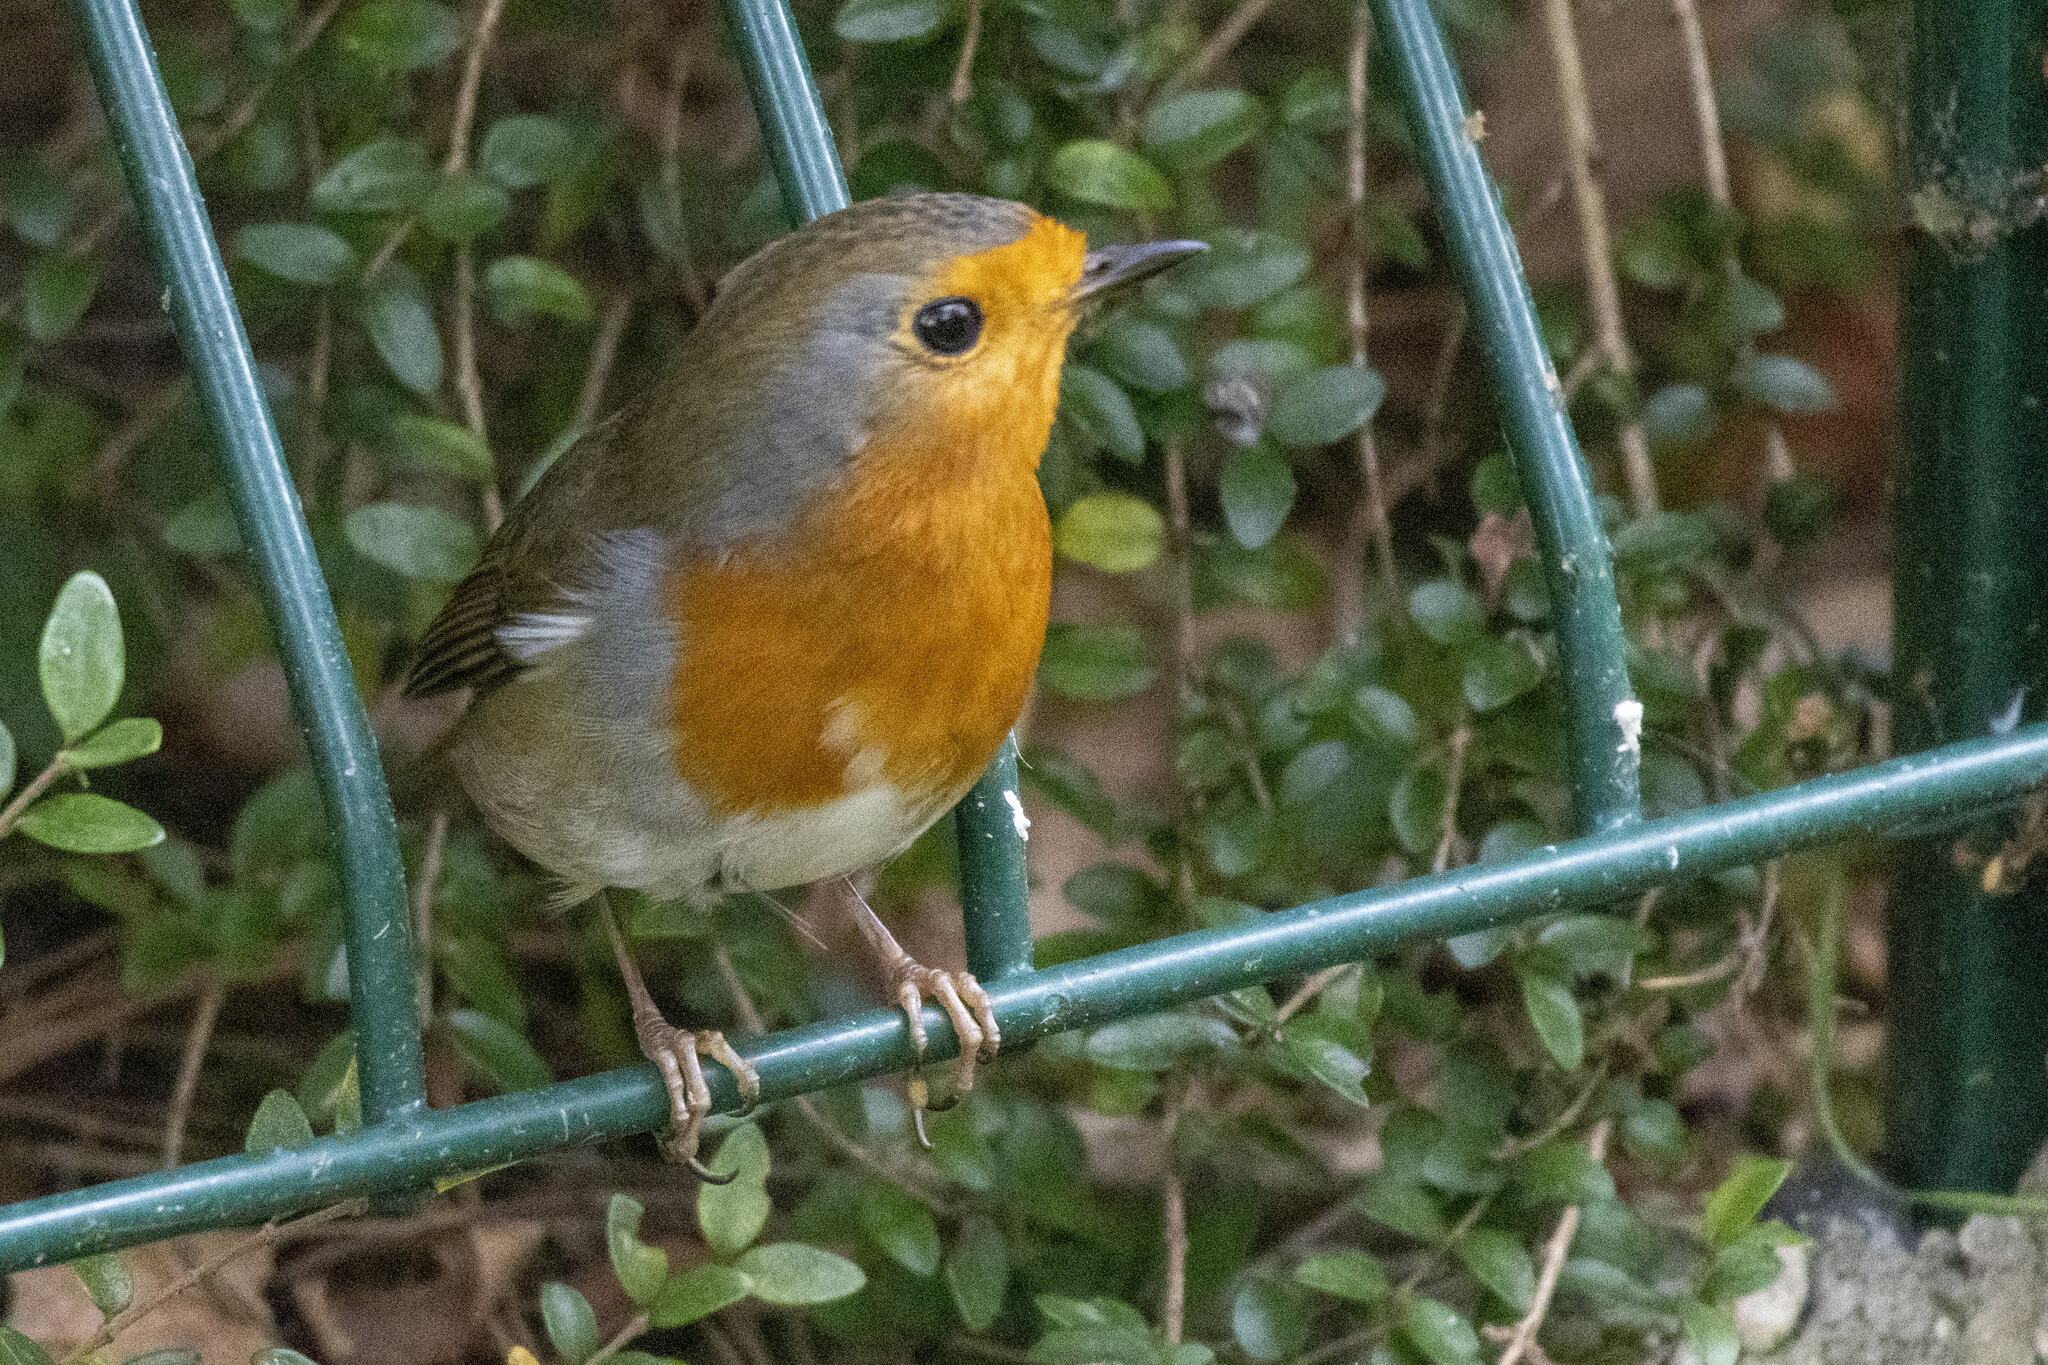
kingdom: Animalia
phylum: Chordata
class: Aves
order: Passeriformes
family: Muscicapidae
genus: Erithacus
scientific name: Erithacus rubecula
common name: European robin
